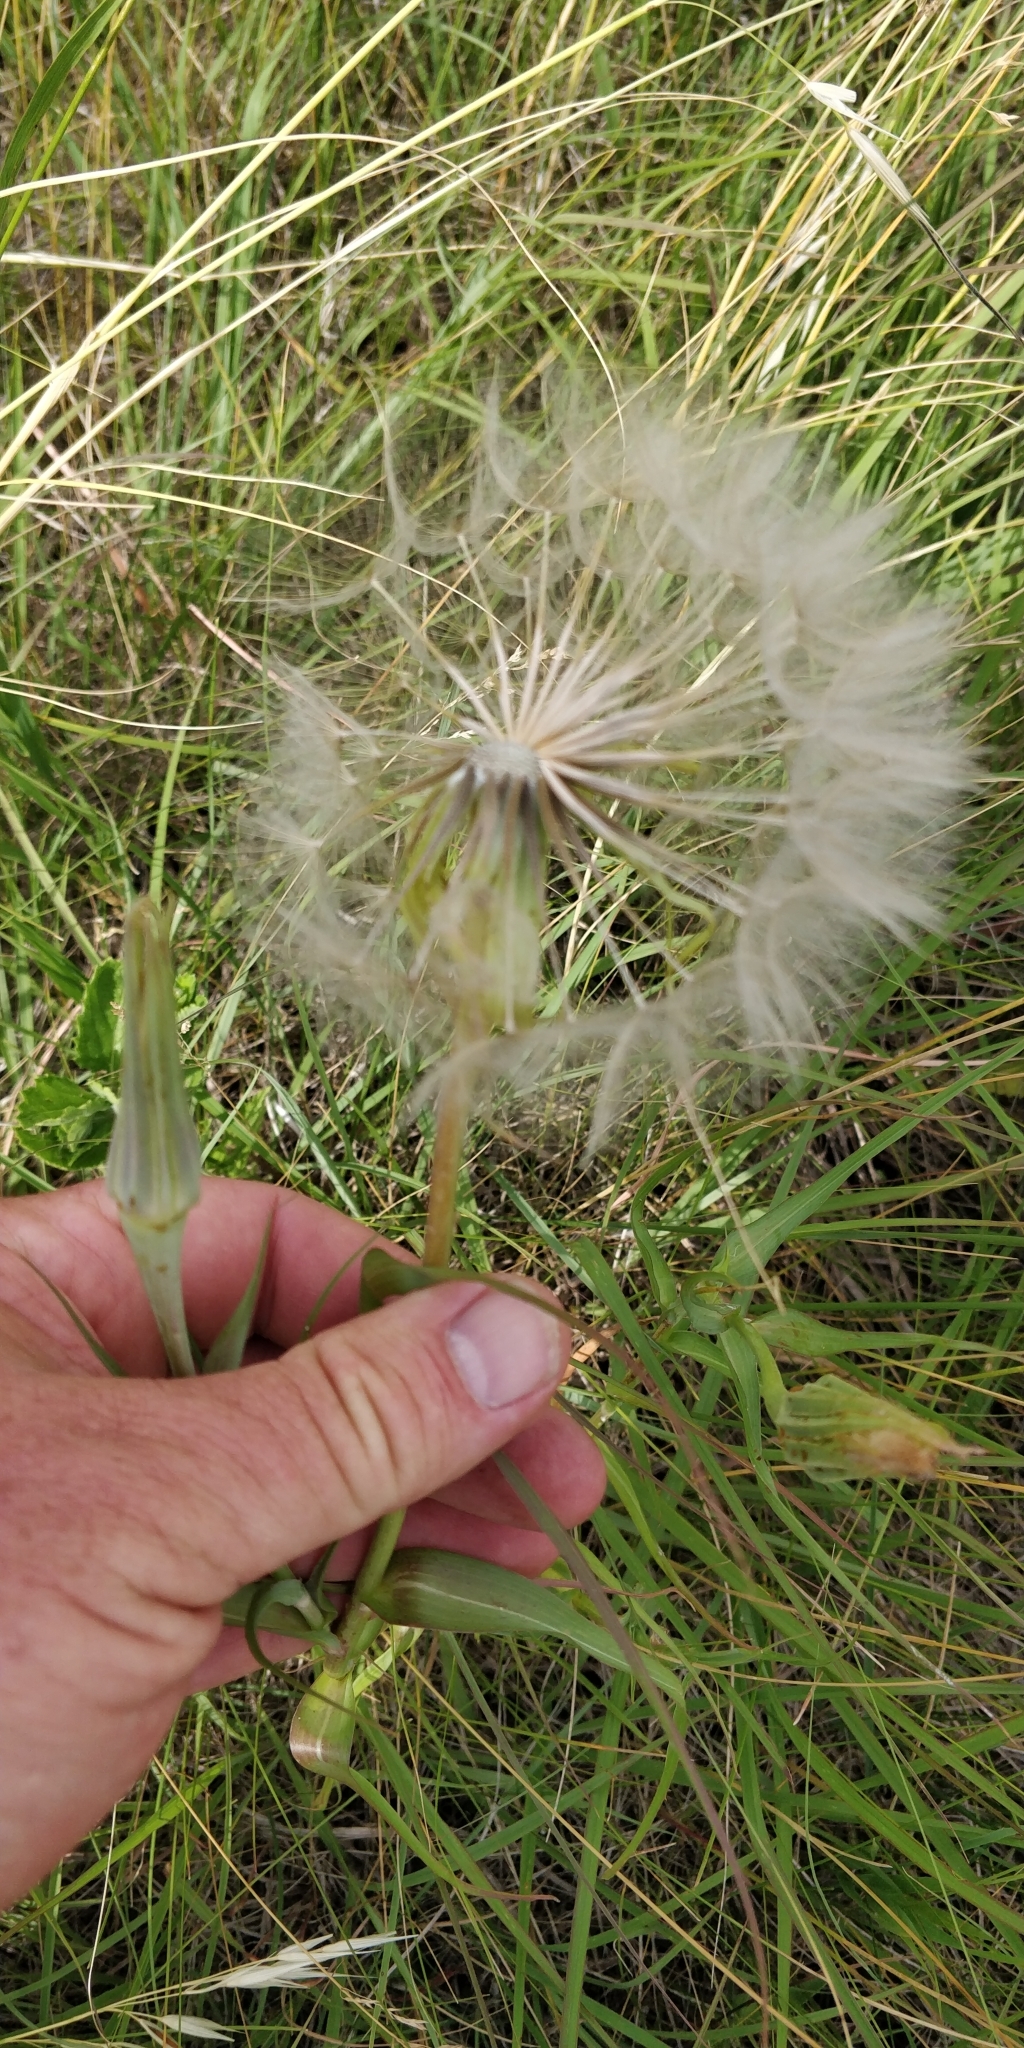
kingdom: Plantae
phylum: Tracheophyta
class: Magnoliopsida
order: Asterales
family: Asteraceae
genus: Tragopogon
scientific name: Tragopogon dubius
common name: Yellow salsify
